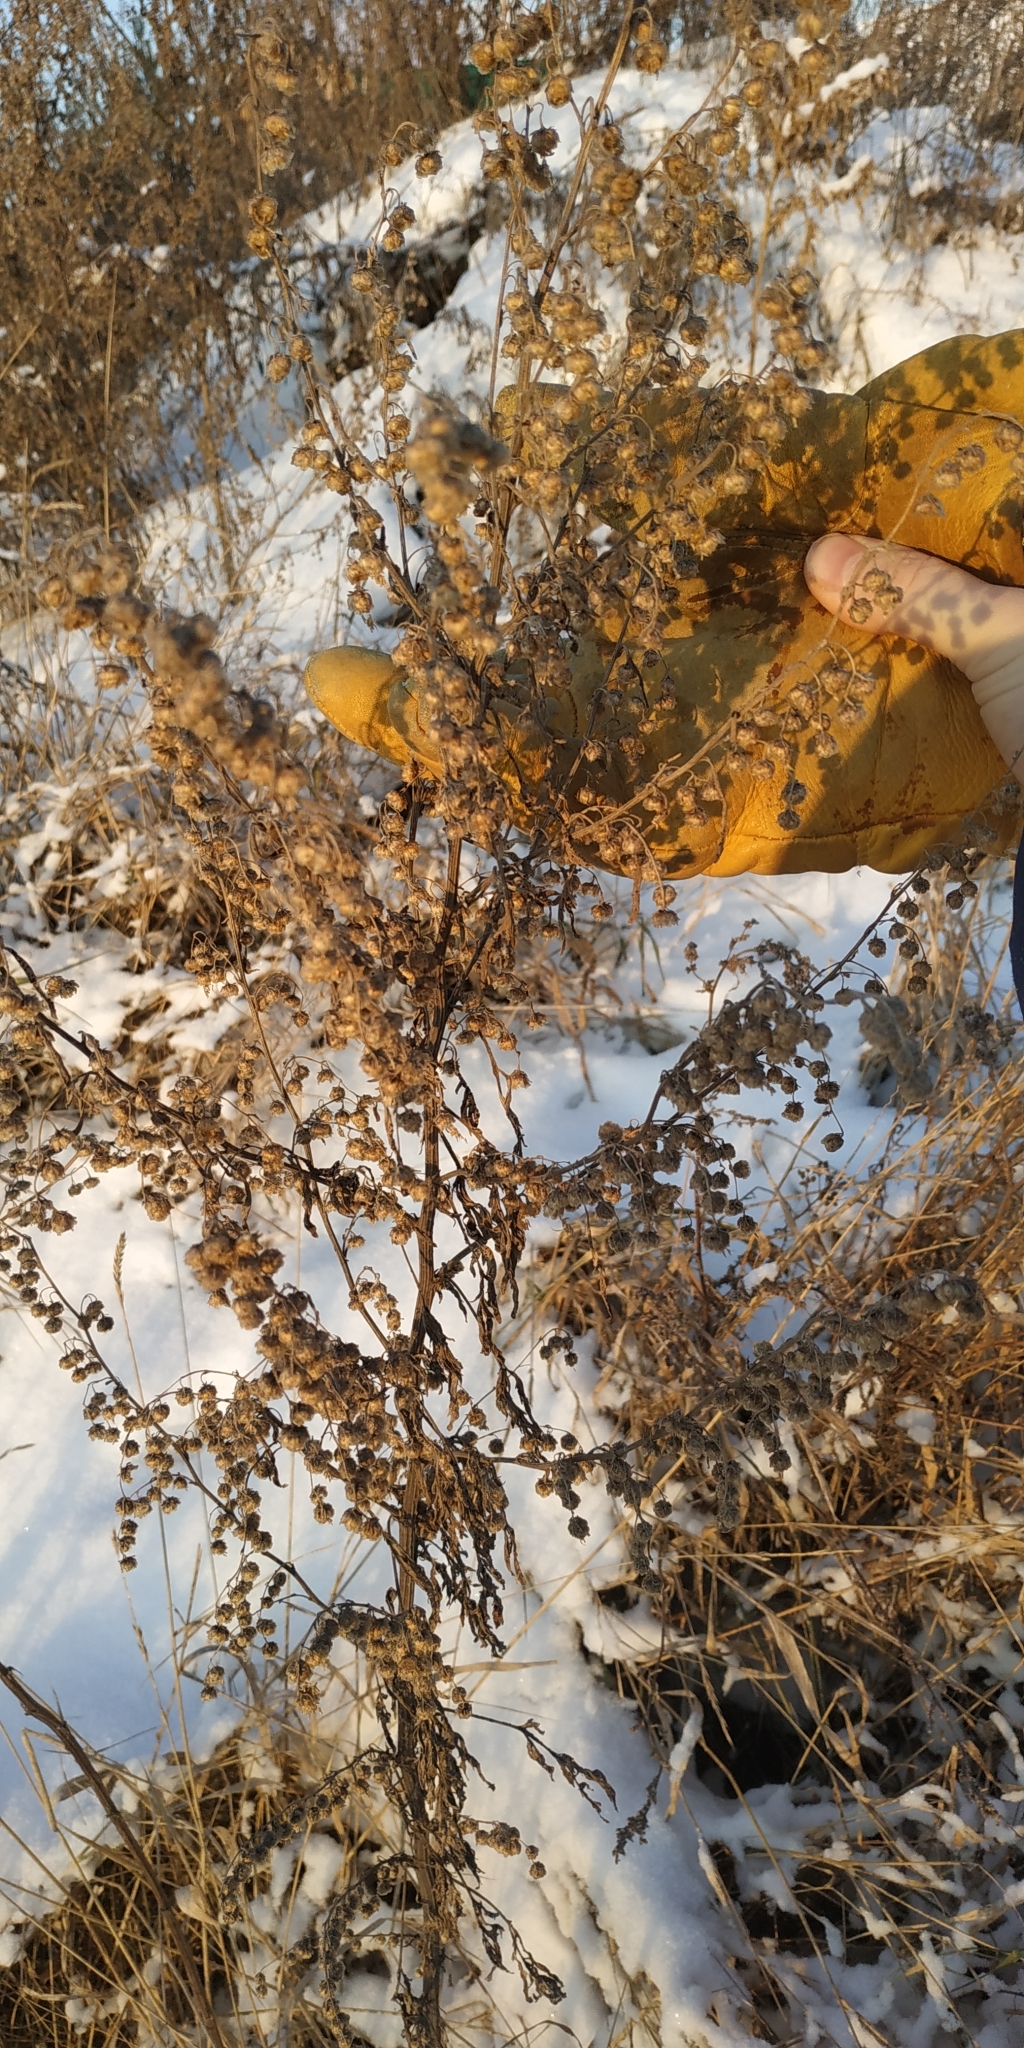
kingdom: Plantae
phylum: Tracheophyta
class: Magnoliopsida
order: Asterales
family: Asteraceae
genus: Artemisia
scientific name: Artemisia vulgaris
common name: Mugwort
